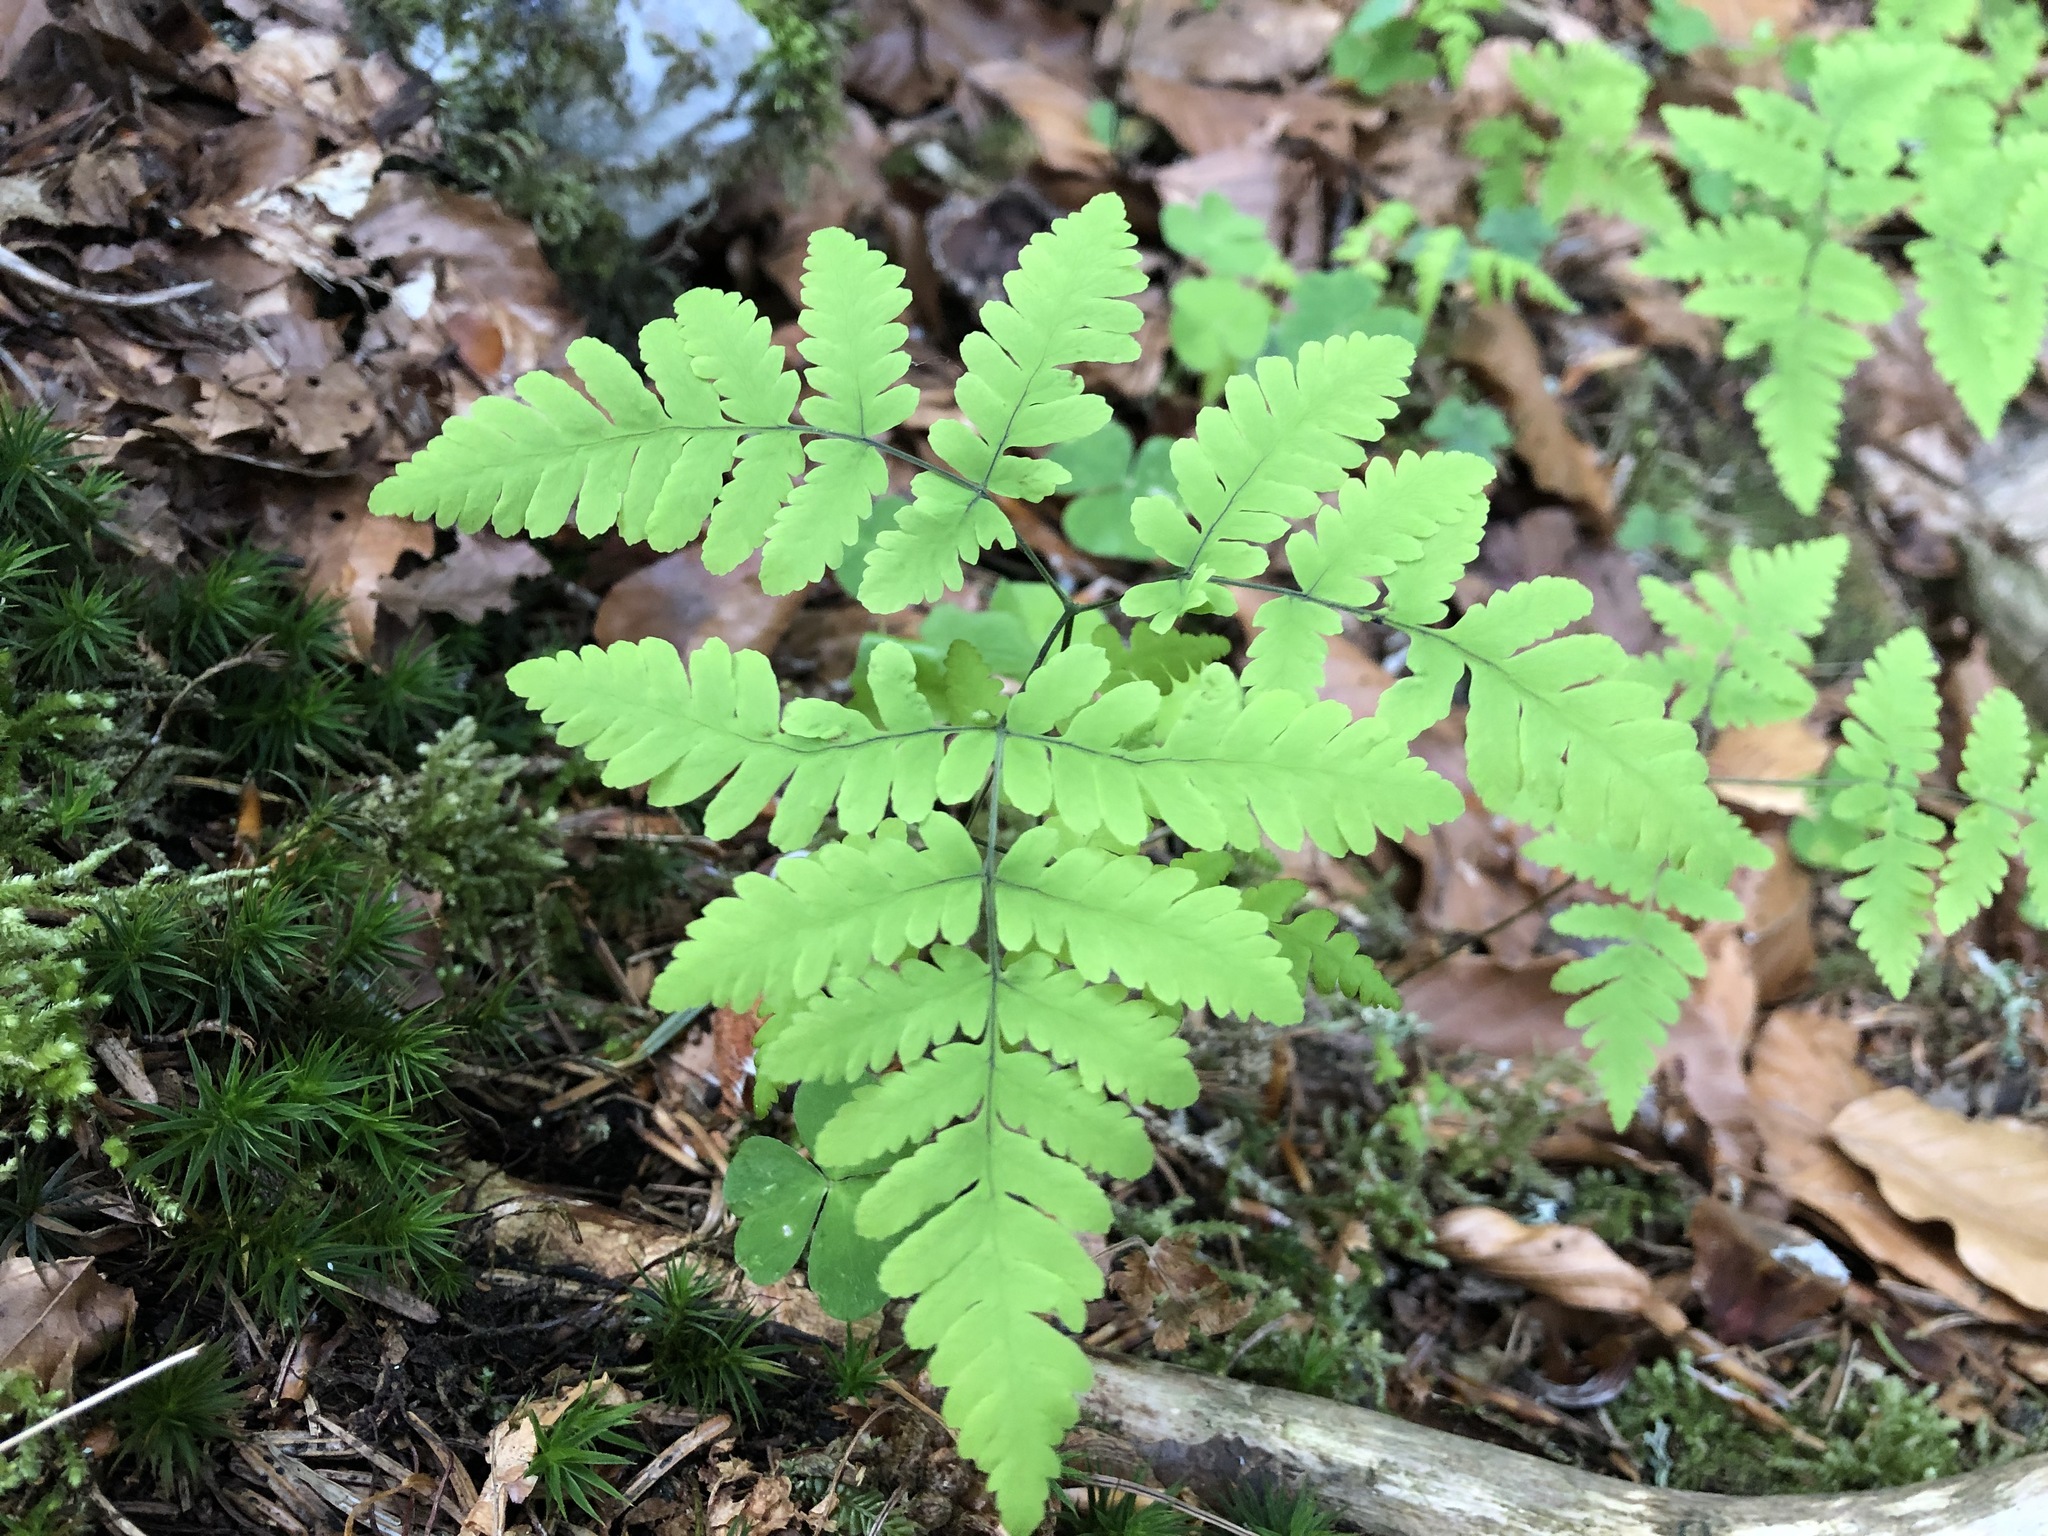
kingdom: Plantae
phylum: Tracheophyta
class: Polypodiopsida
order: Polypodiales
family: Cystopteridaceae
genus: Gymnocarpium
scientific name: Gymnocarpium dryopteris
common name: Oak fern
